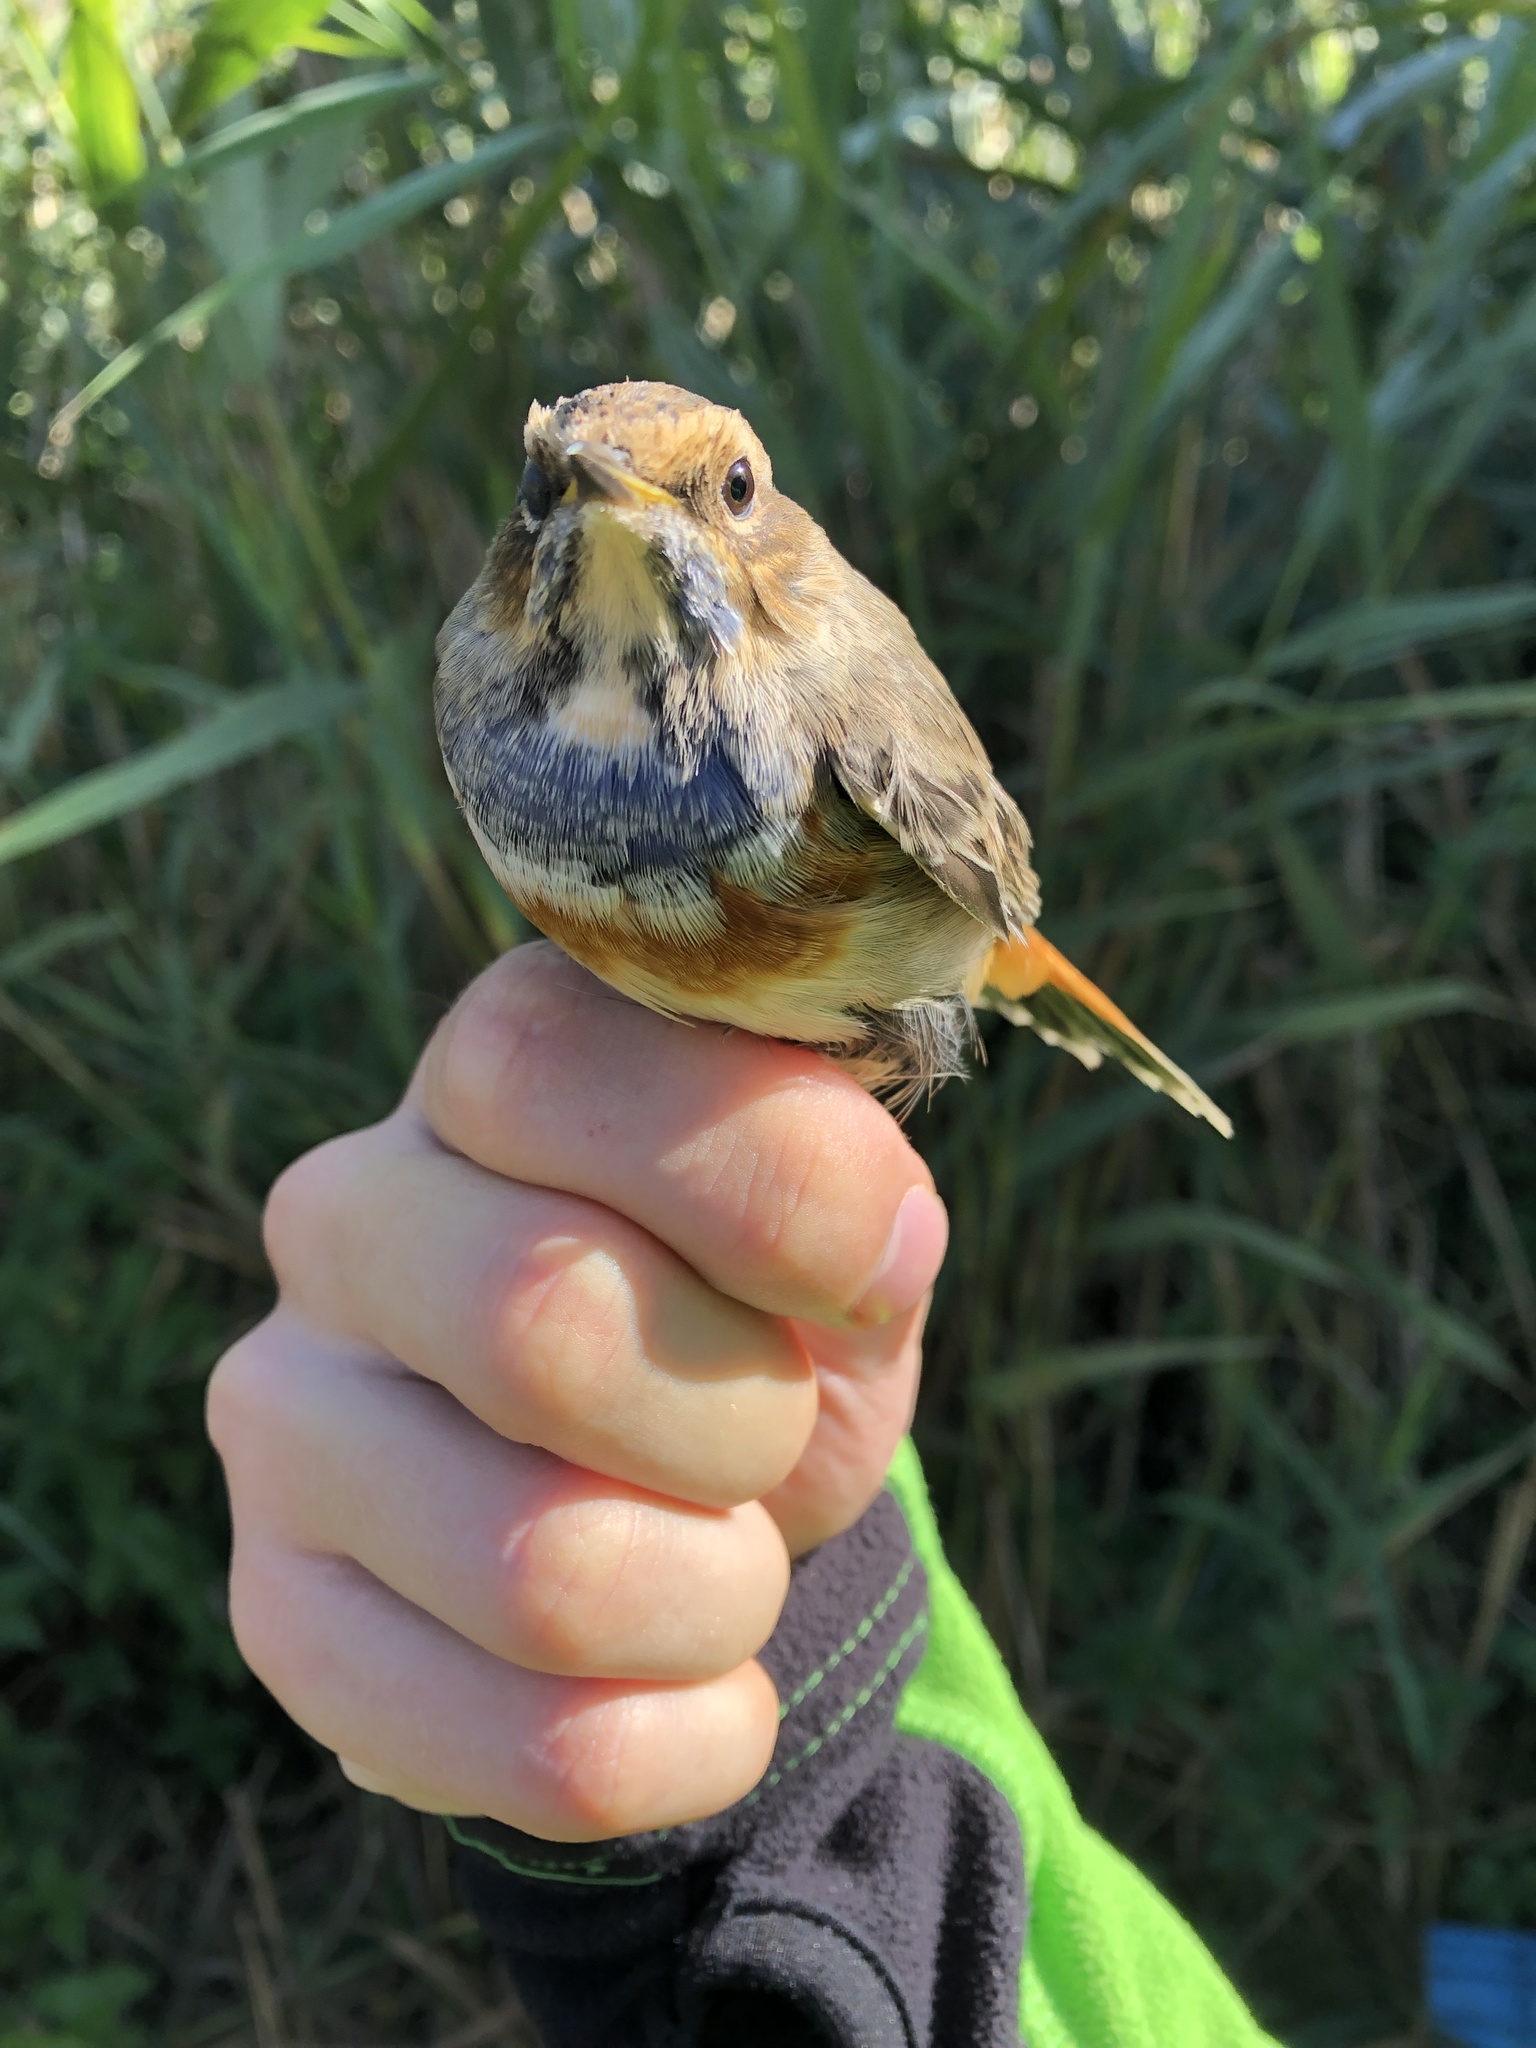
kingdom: Animalia
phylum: Chordata
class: Aves
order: Passeriformes
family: Muscicapidae
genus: Luscinia
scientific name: Luscinia svecica
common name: Bluethroat
